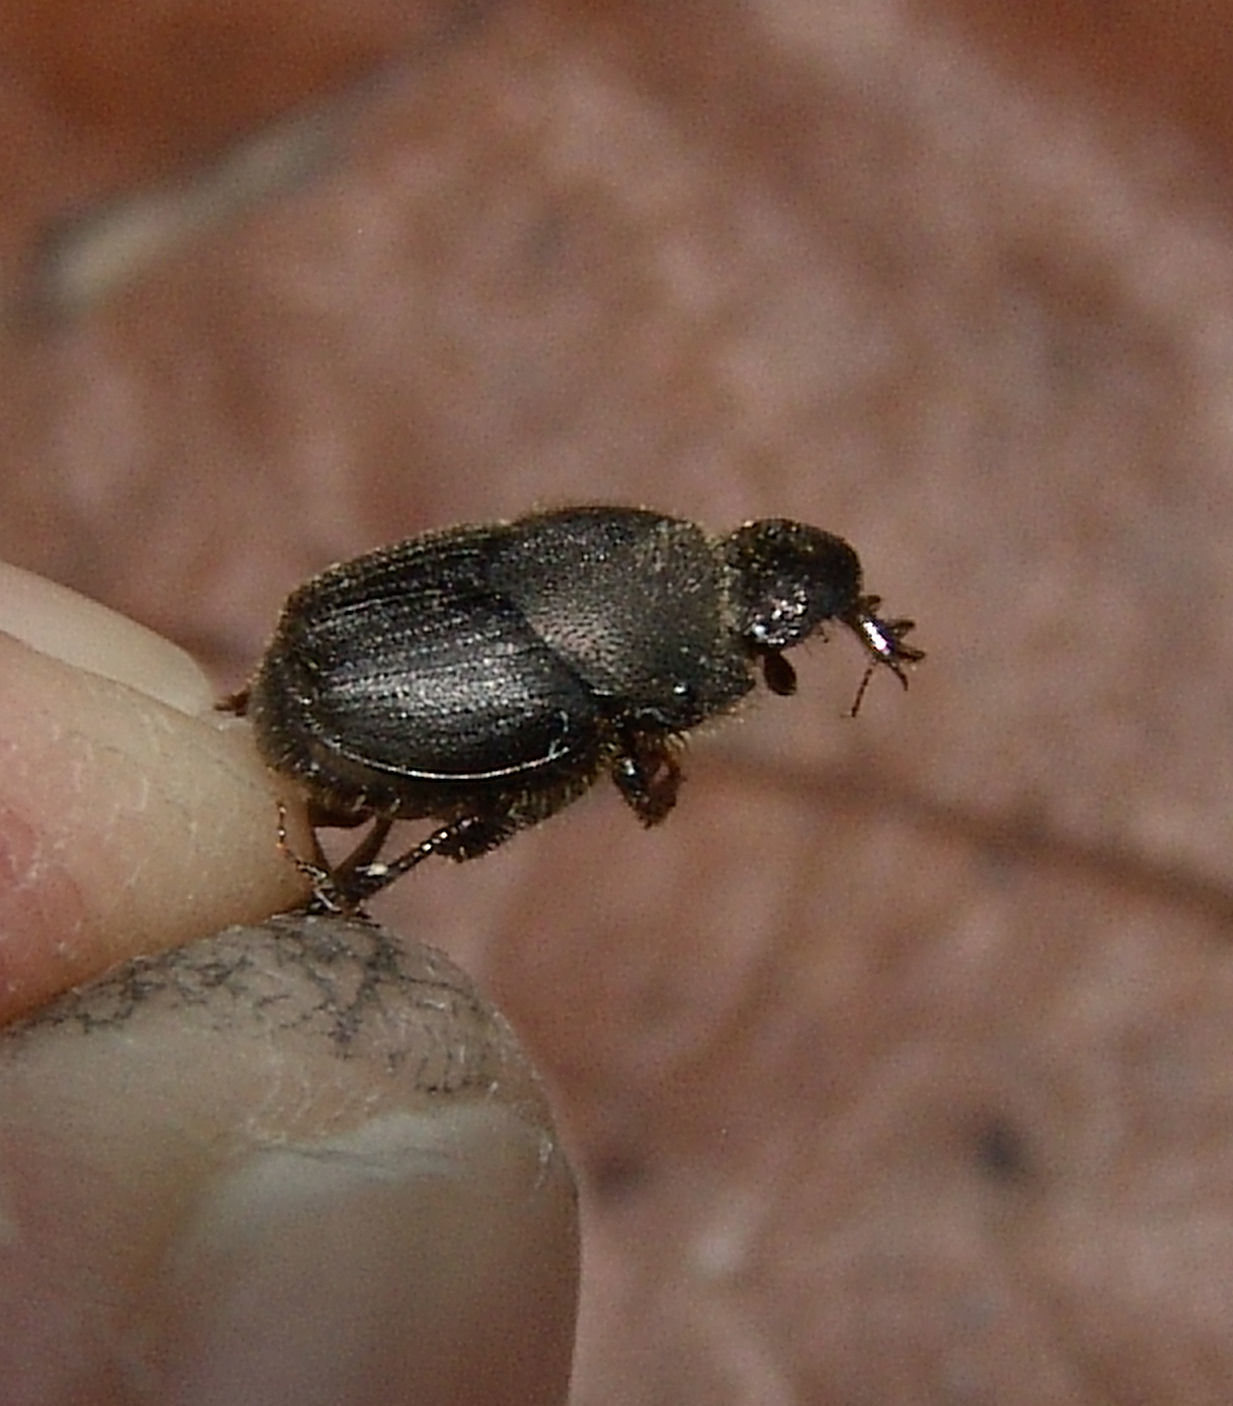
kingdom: Animalia
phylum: Arthropoda
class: Insecta
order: Coleoptera
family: Scarabaeidae
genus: Onthophagus
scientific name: Onthophagus hecate
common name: Scooped scarab
